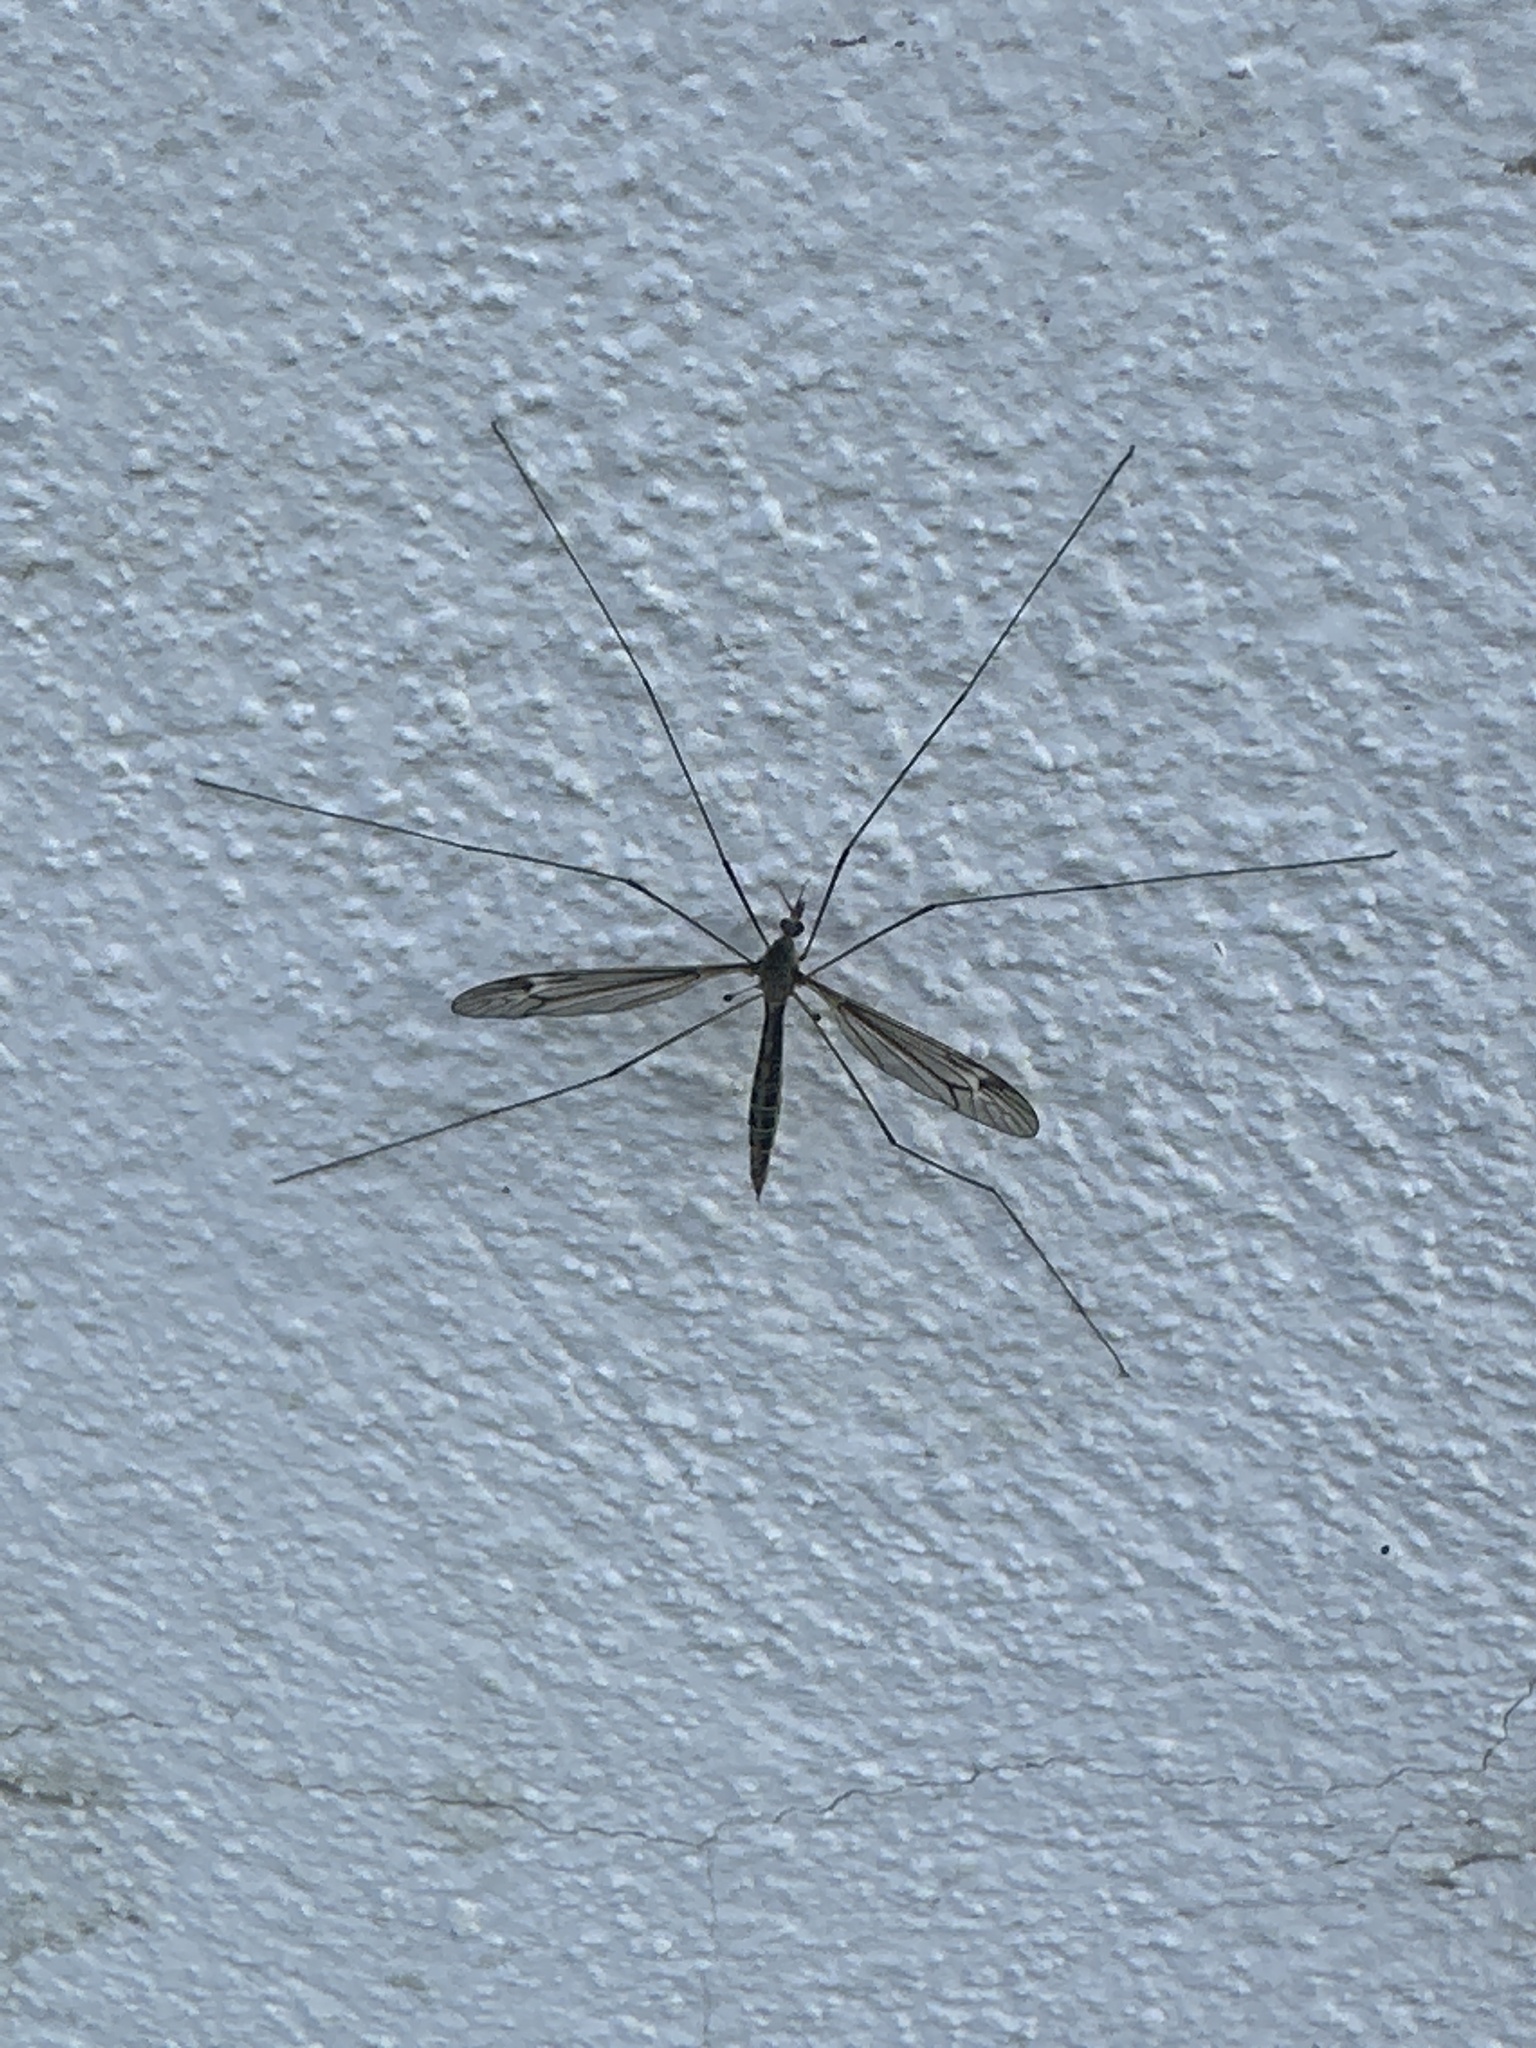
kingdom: Animalia
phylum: Arthropoda
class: Insecta
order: Diptera
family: Tipulidae
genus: Tipula
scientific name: Tipula maxima
